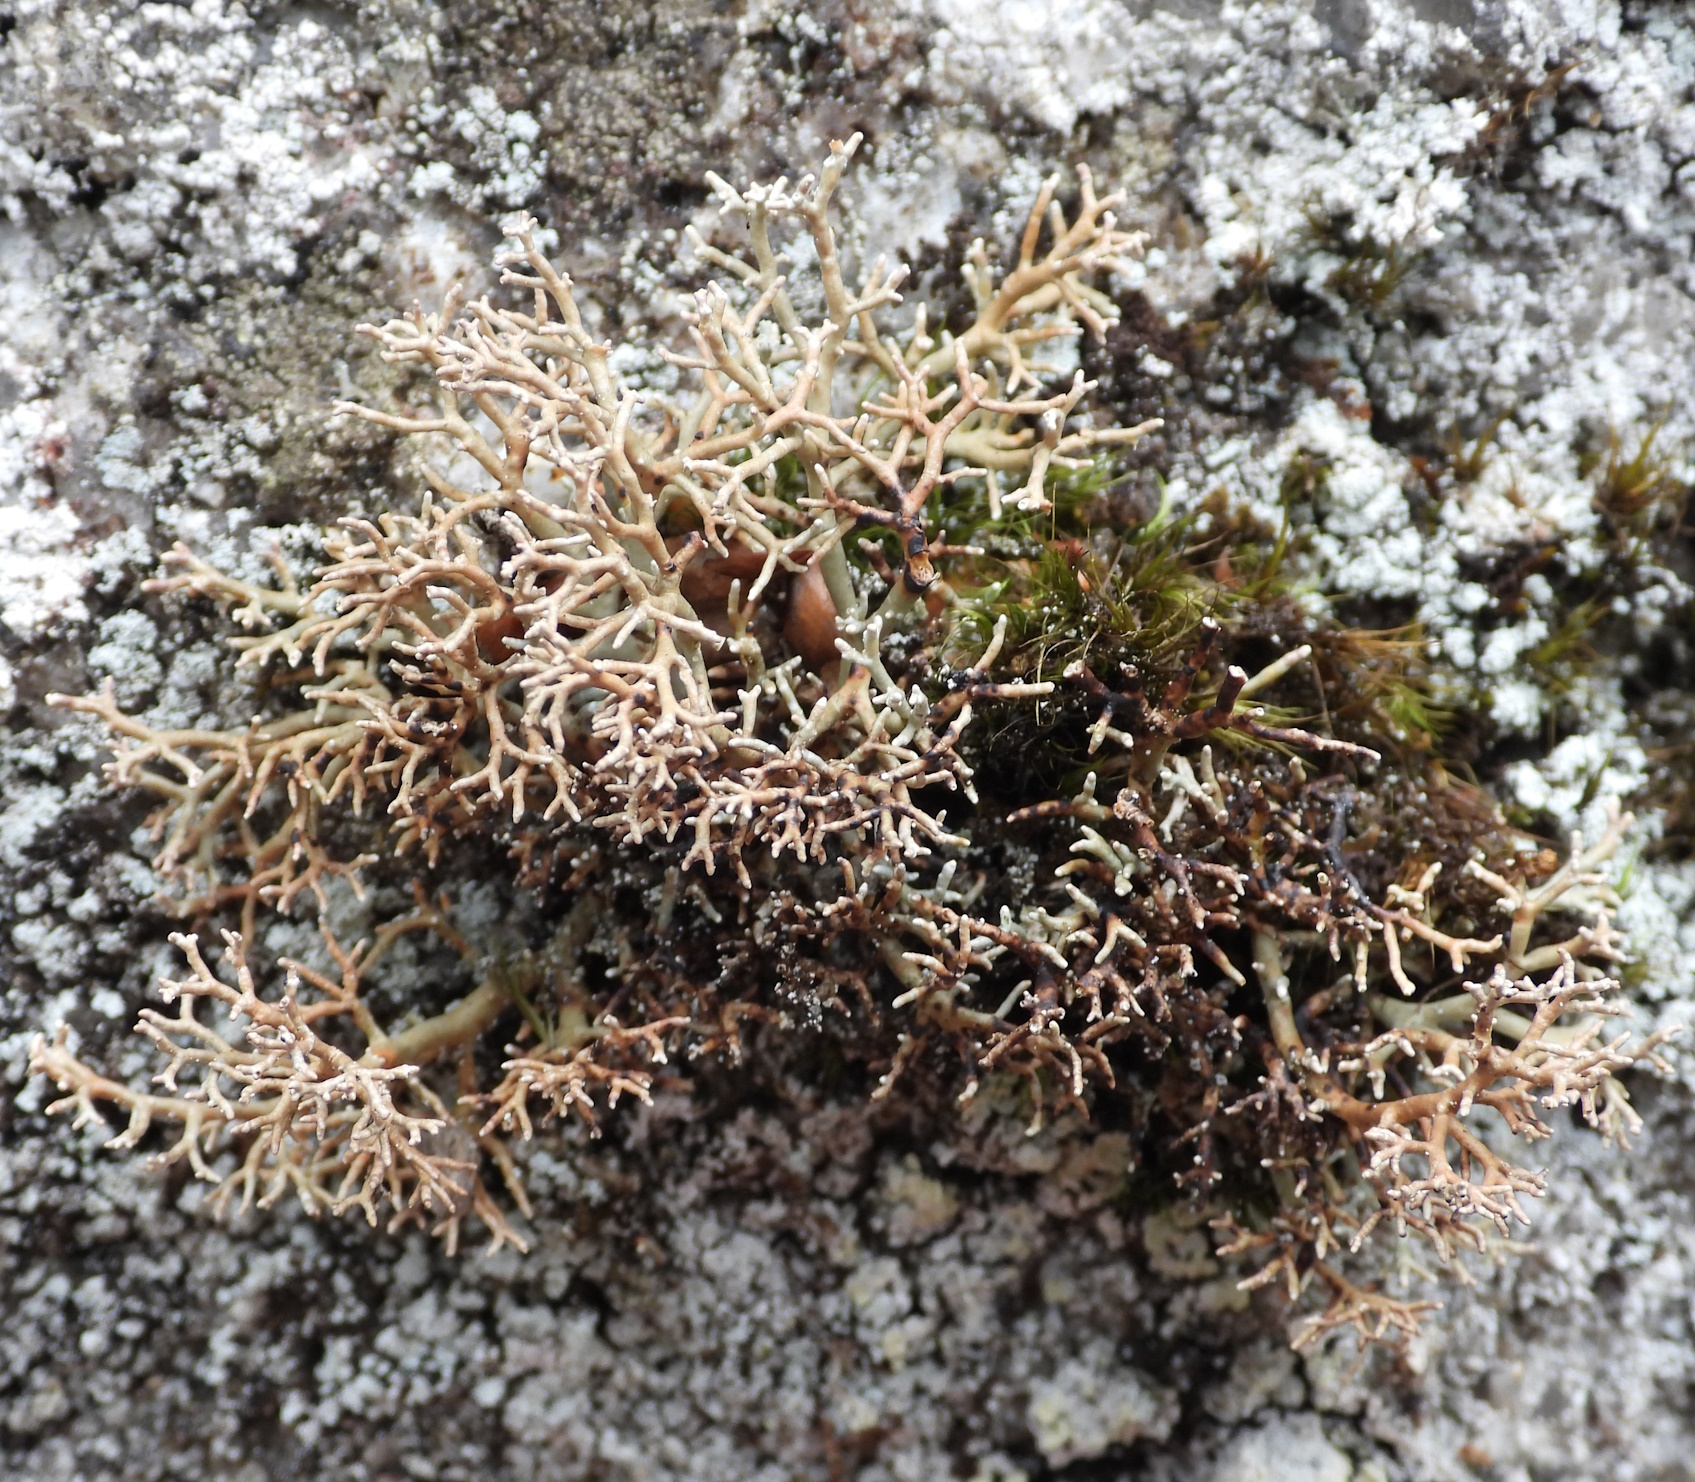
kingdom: Fungi
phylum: Ascomycota
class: Lecanoromycetes
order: Lecanorales
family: Sphaerophoraceae
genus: Sphaerophorus
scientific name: Sphaerophorus fragilis
